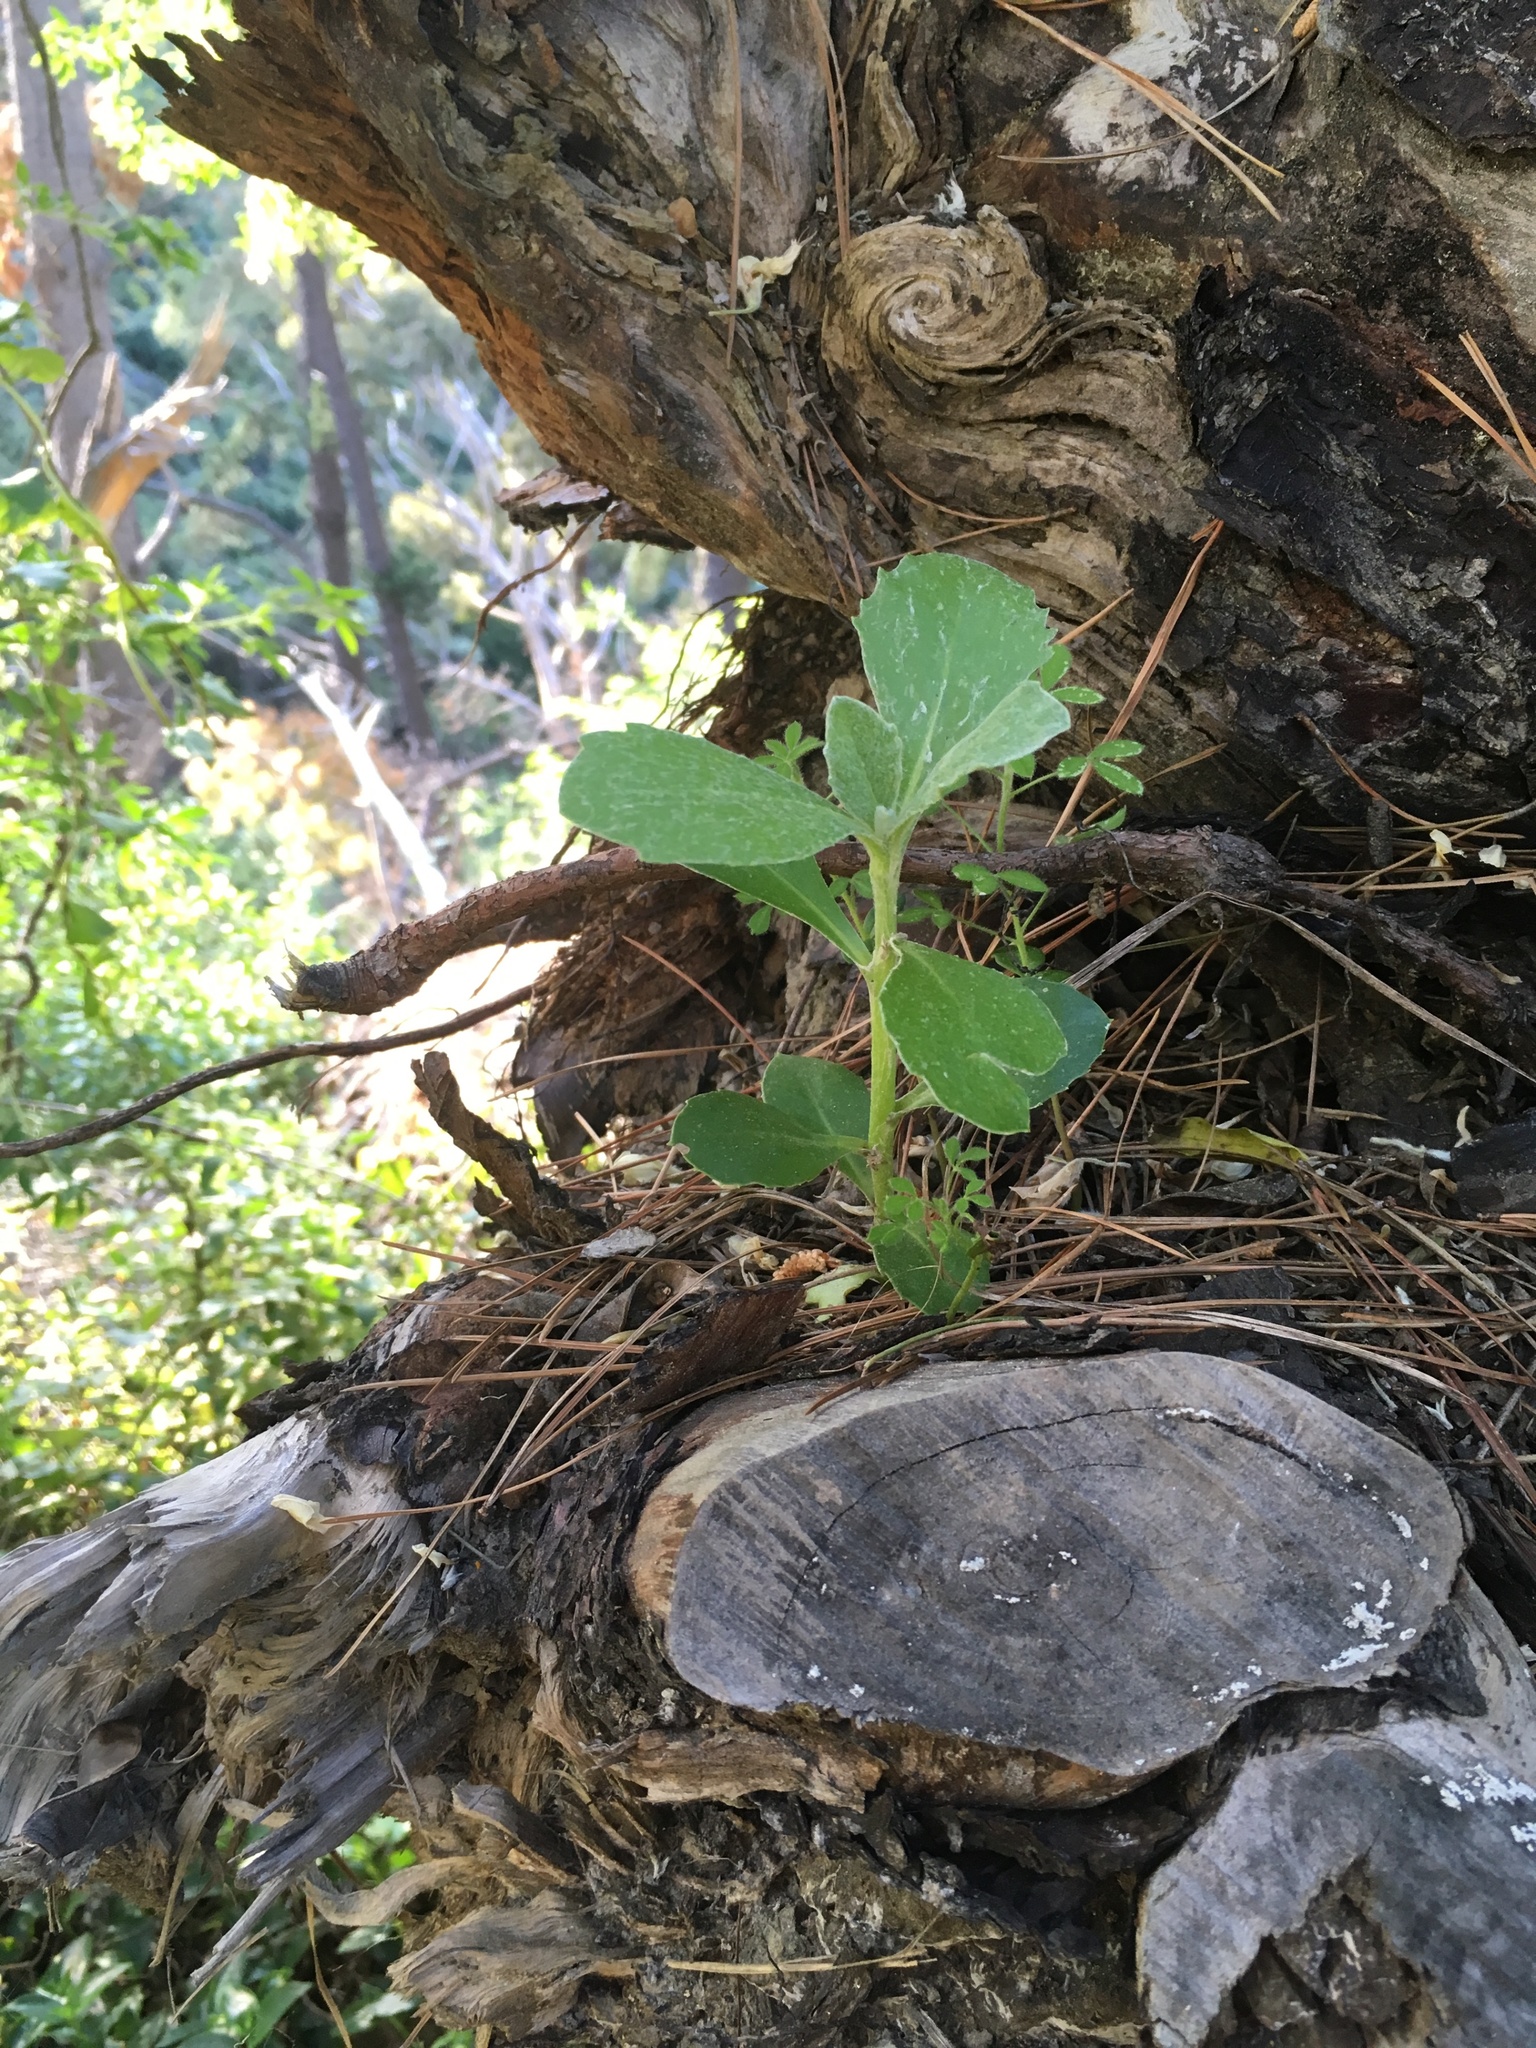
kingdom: Plantae
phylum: Tracheophyta
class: Magnoliopsida
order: Asterales
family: Asteraceae
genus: Osteospermum
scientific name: Osteospermum moniliferum
